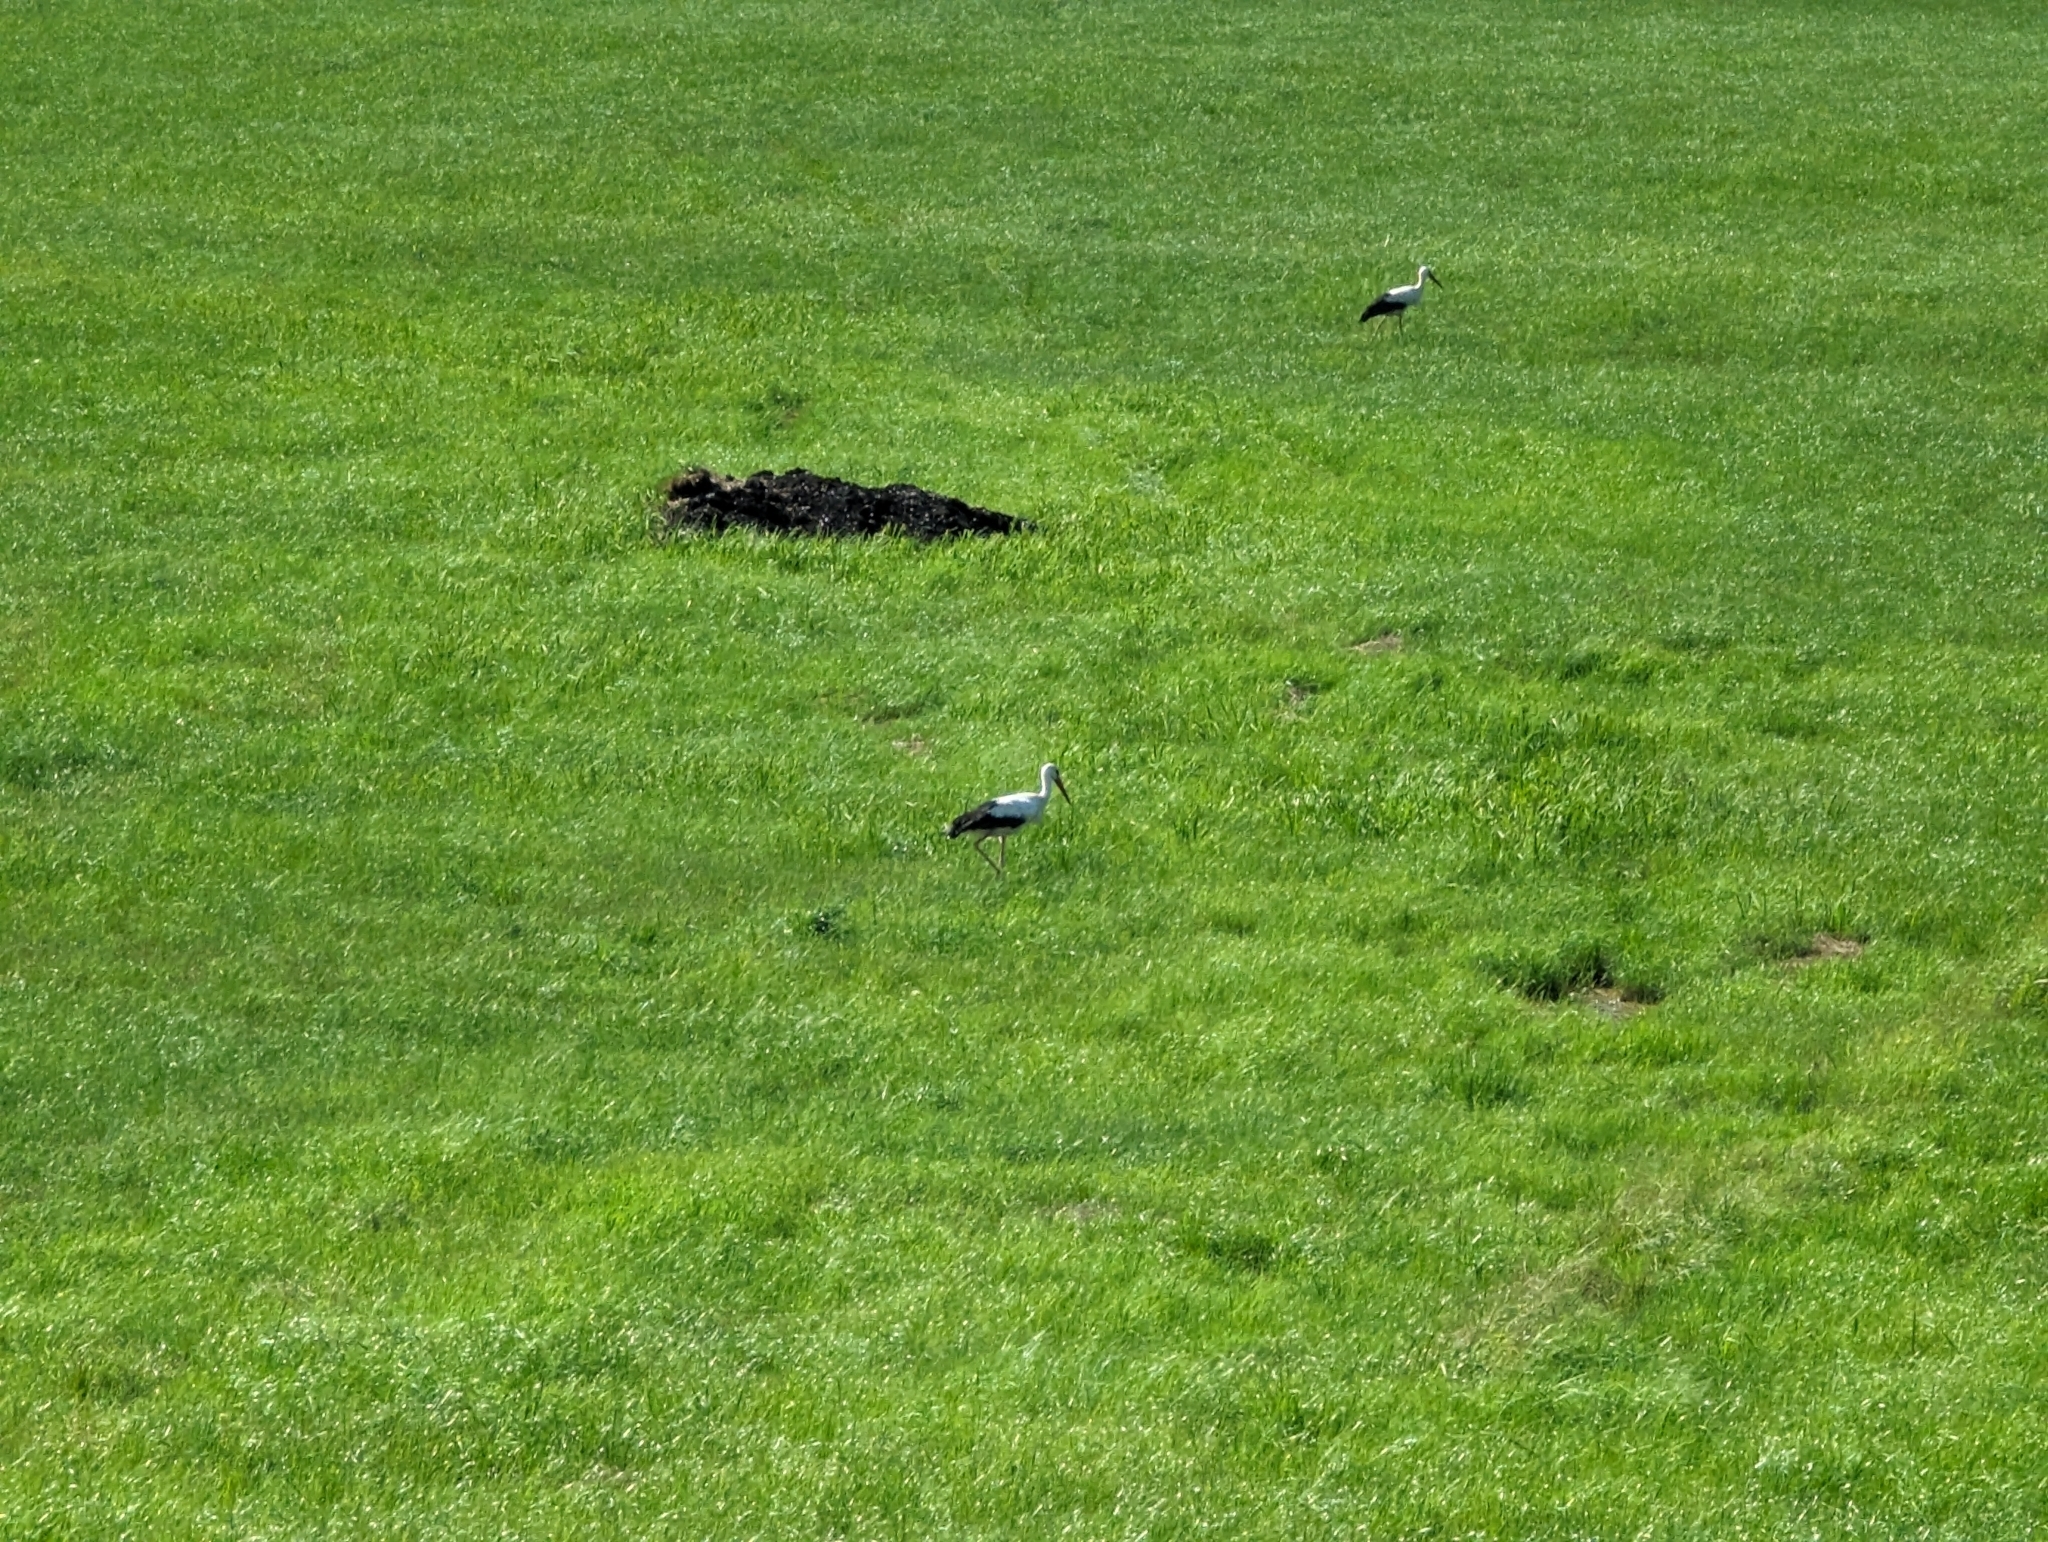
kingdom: Animalia
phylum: Chordata
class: Aves
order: Ciconiiformes
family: Ciconiidae
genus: Ciconia
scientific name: Ciconia ciconia
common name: White stork
